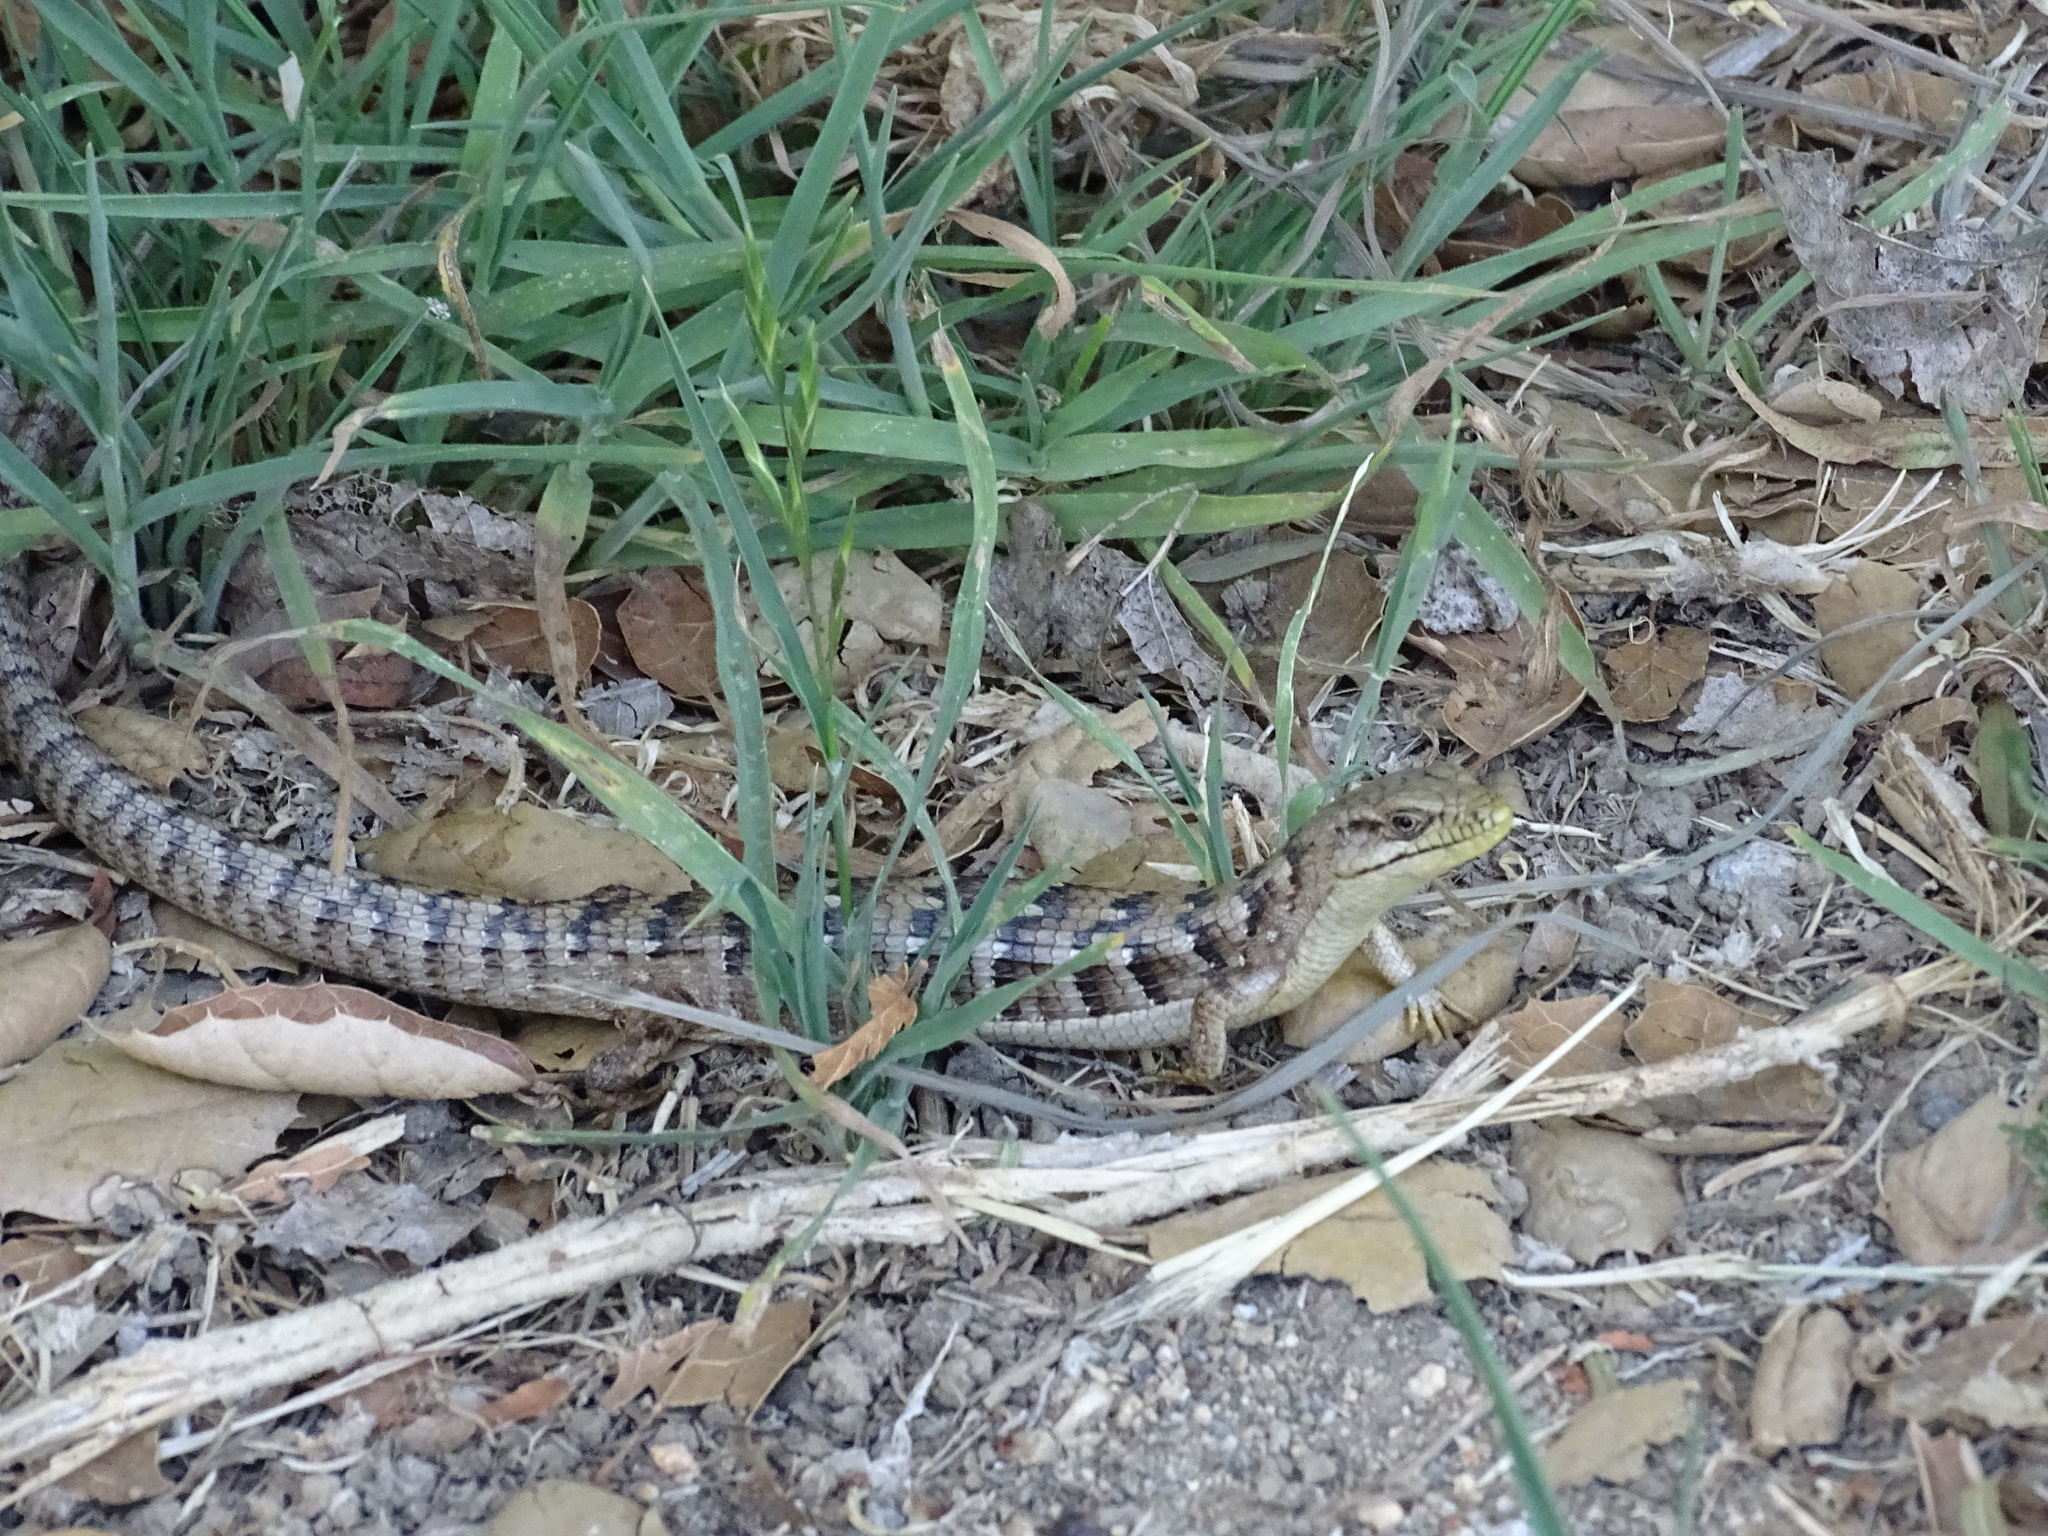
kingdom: Animalia
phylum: Chordata
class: Squamata
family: Anguidae
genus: Elgaria
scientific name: Elgaria multicarinata
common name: Southern alligator lizard
